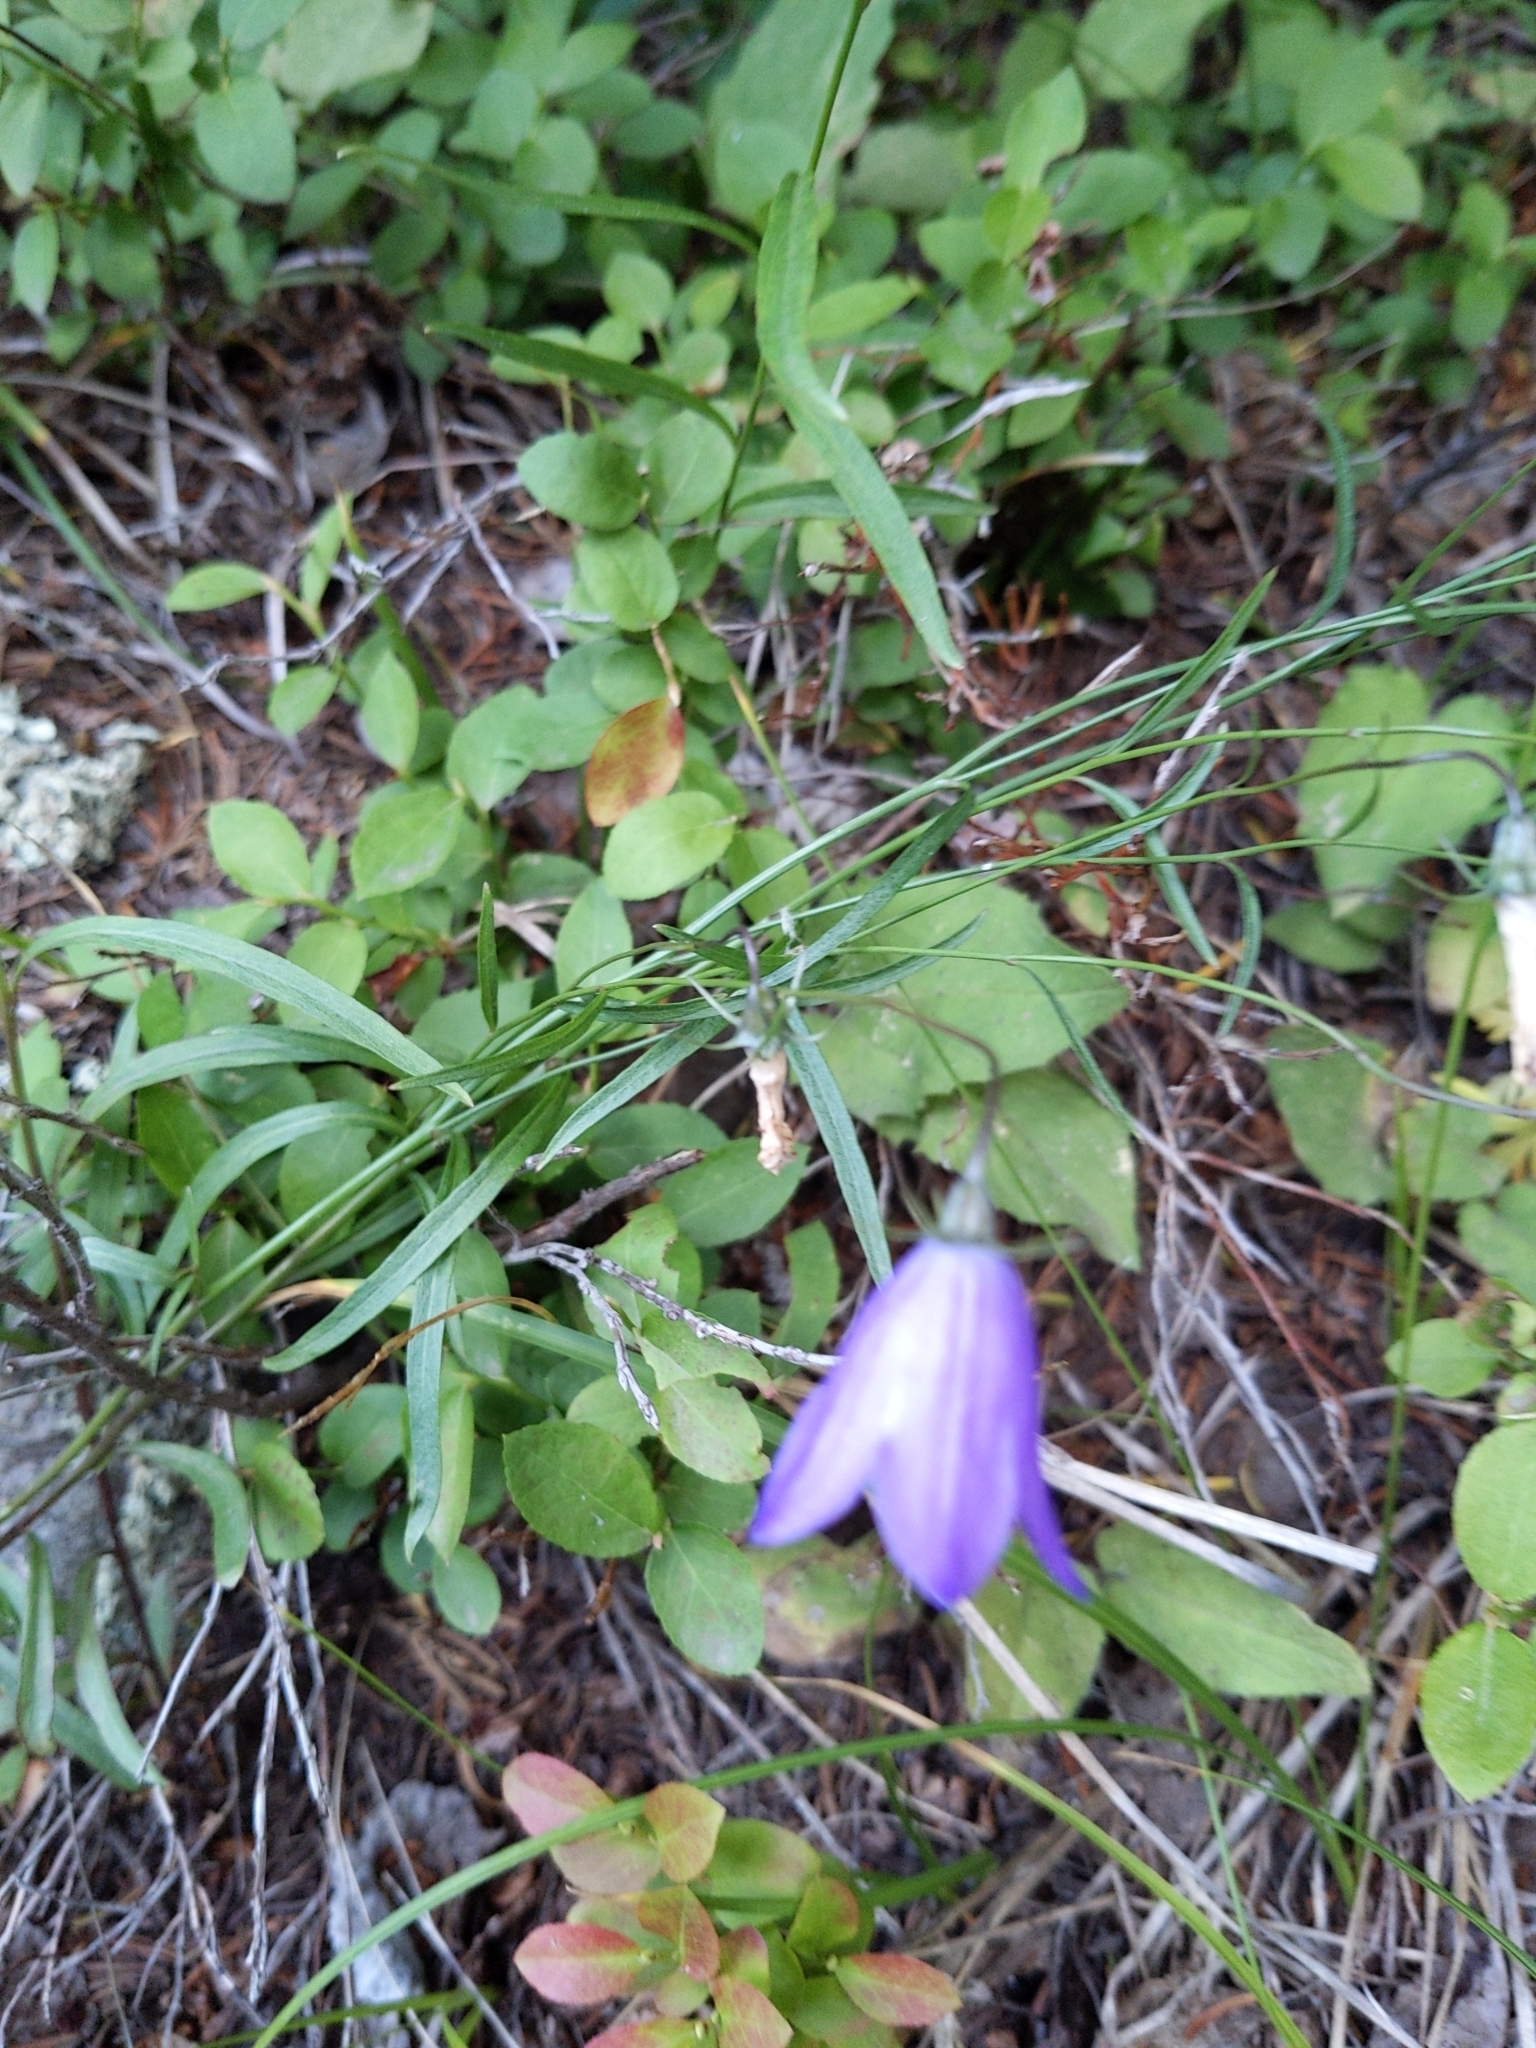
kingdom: Plantae
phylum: Tracheophyta
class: Magnoliopsida
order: Asterales
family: Campanulaceae
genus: Campanula
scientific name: Campanula petiolata
